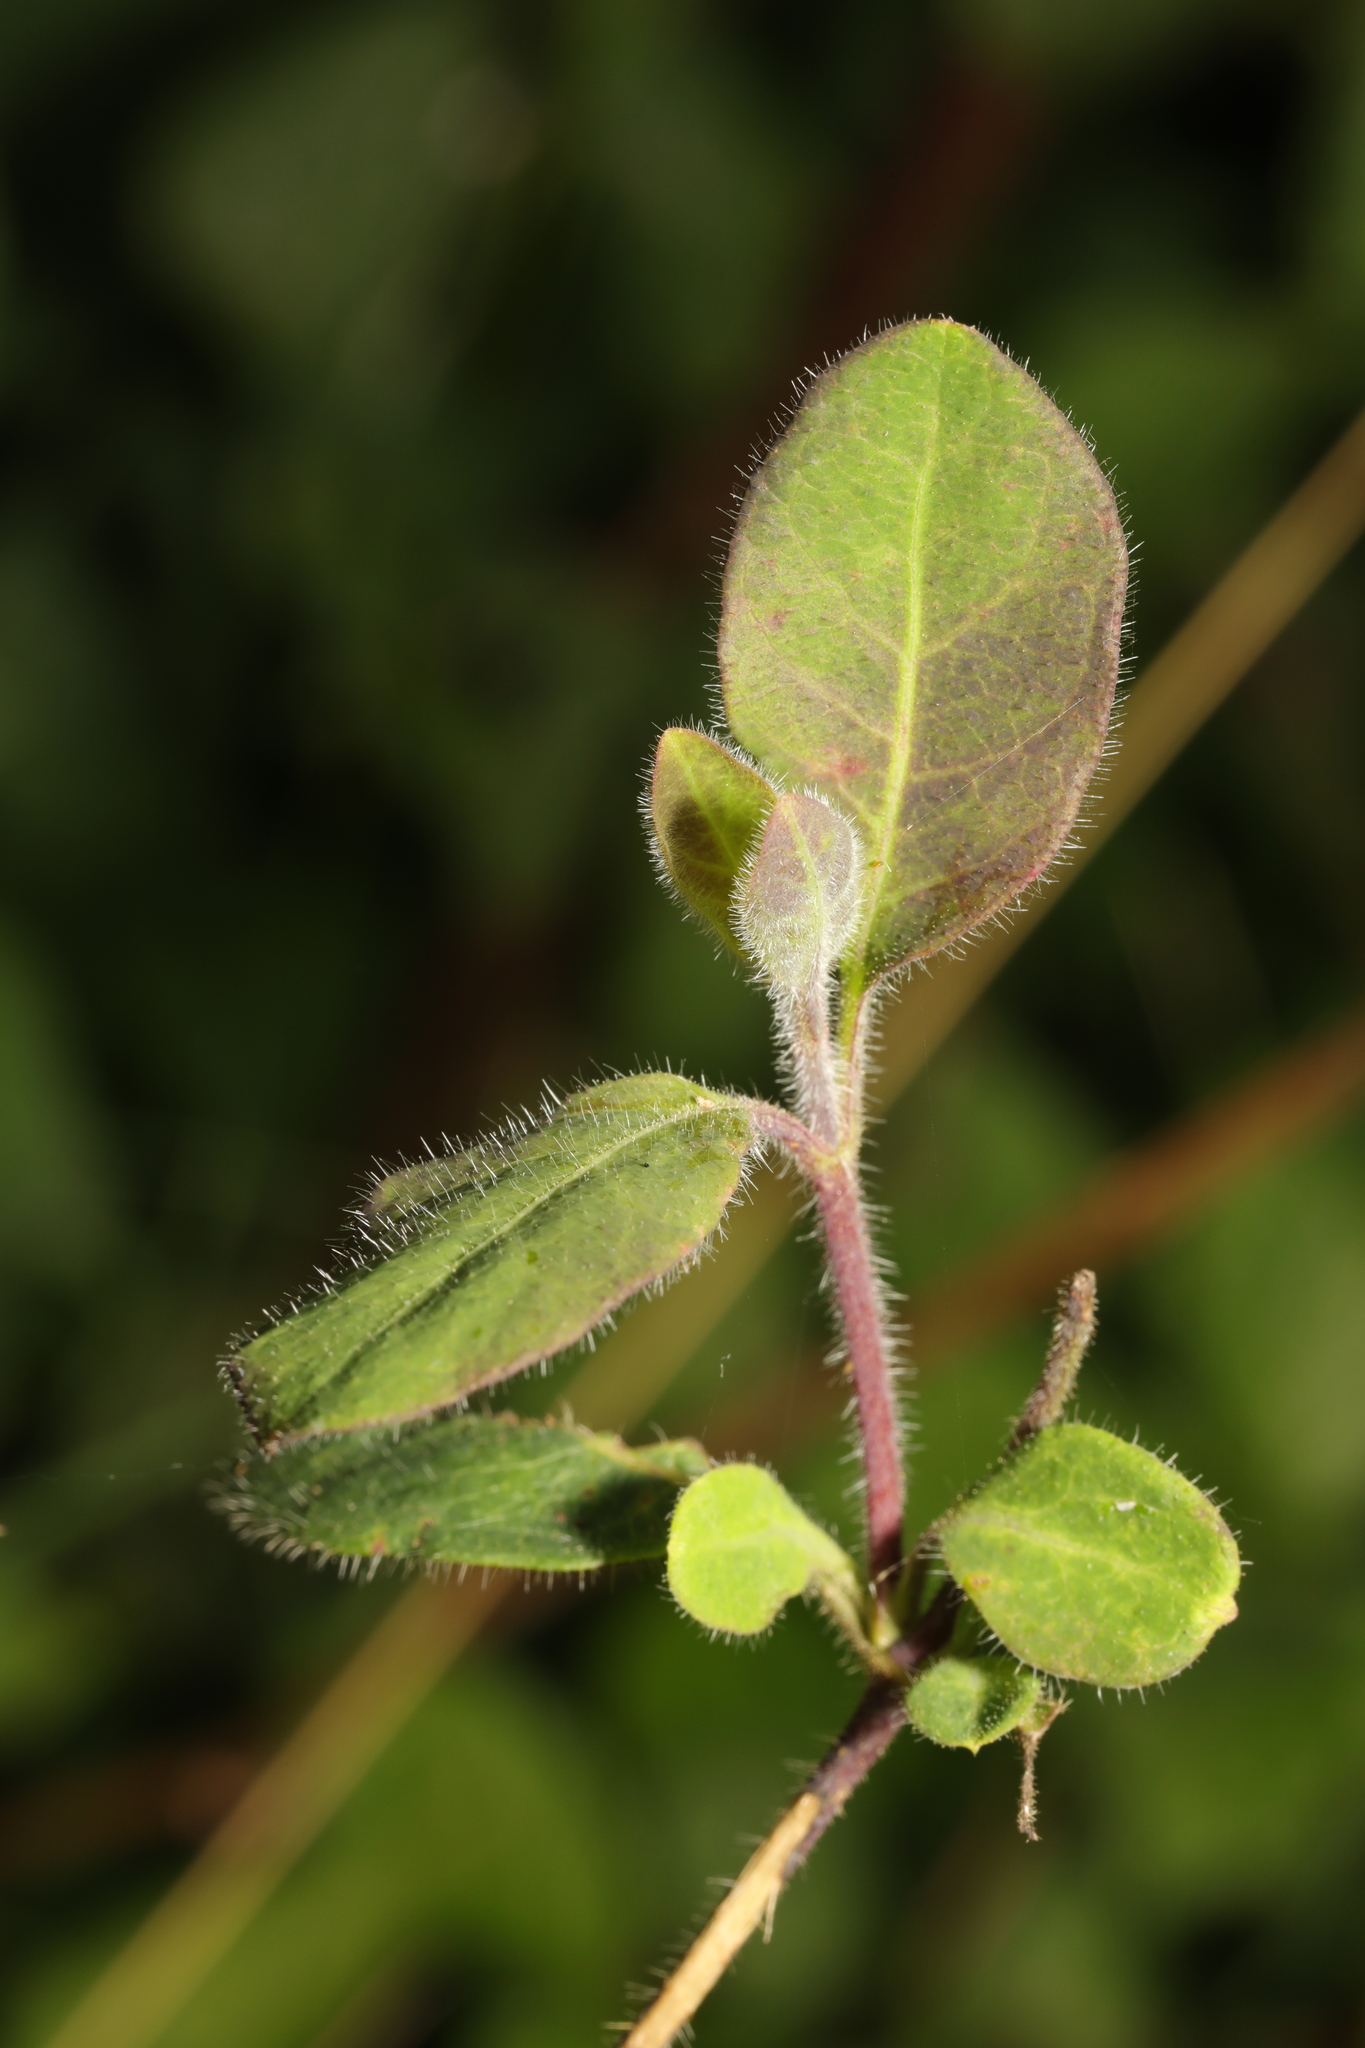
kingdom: Plantae
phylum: Tracheophyta
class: Magnoliopsida
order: Dipsacales
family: Caprifoliaceae
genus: Lonicera
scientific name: Lonicera periclymenum
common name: European honeysuckle
